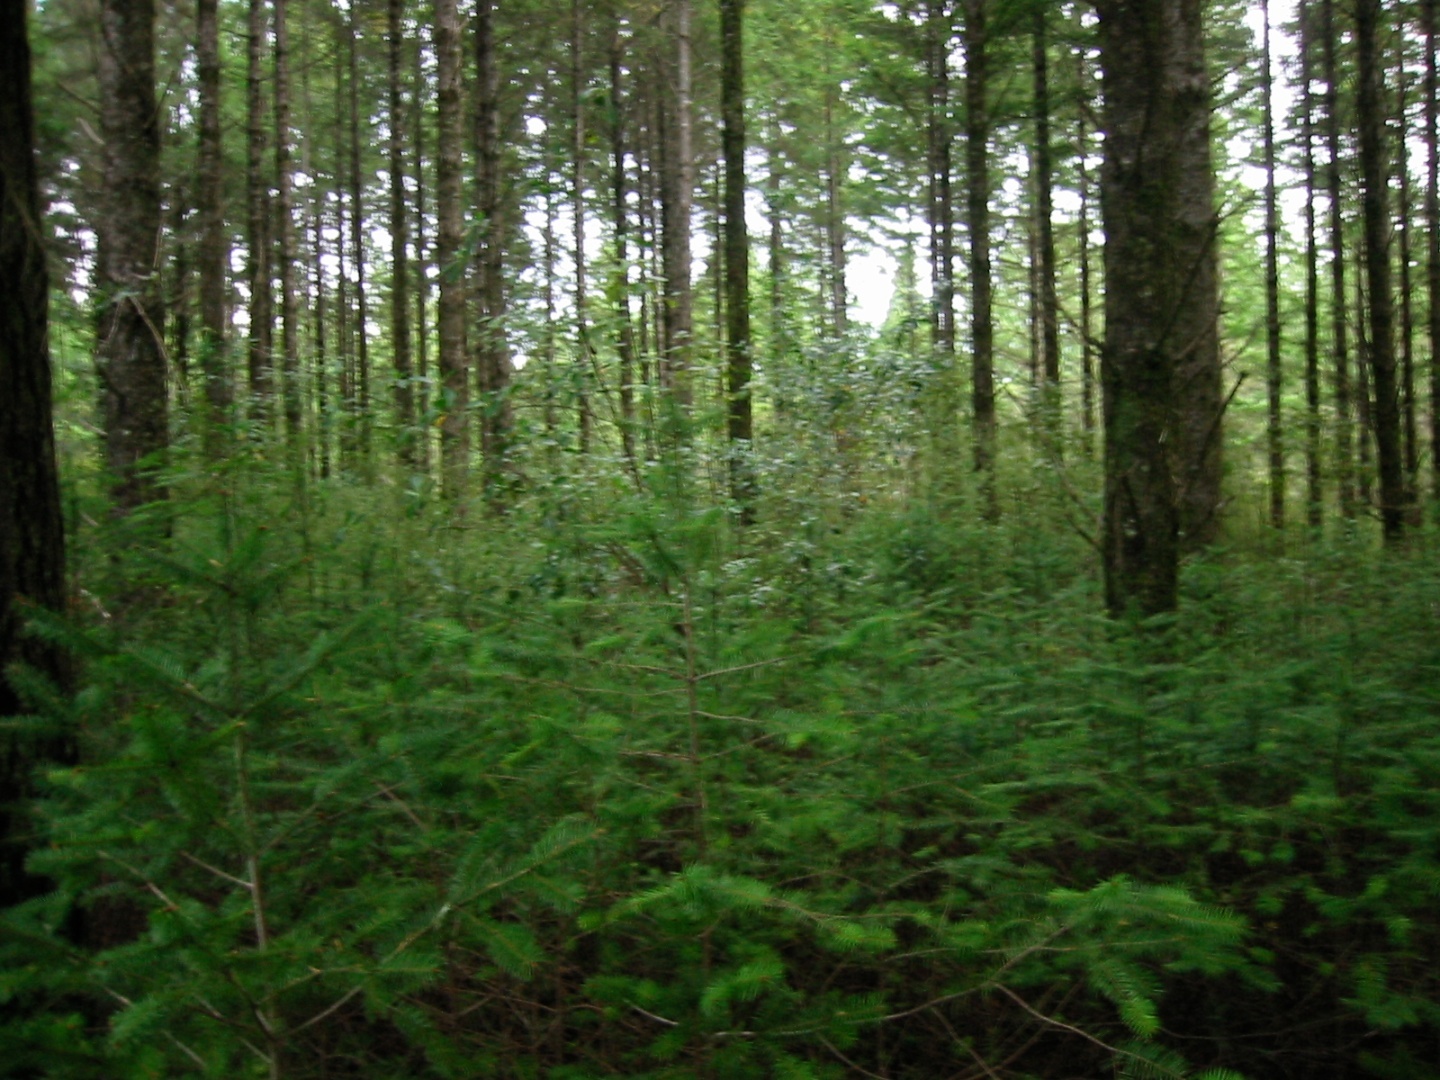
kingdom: Plantae
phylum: Tracheophyta
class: Pinopsida
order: Pinales
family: Pinaceae
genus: Pseudotsuga
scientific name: Pseudotsuga menziesii
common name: Douglas fir
